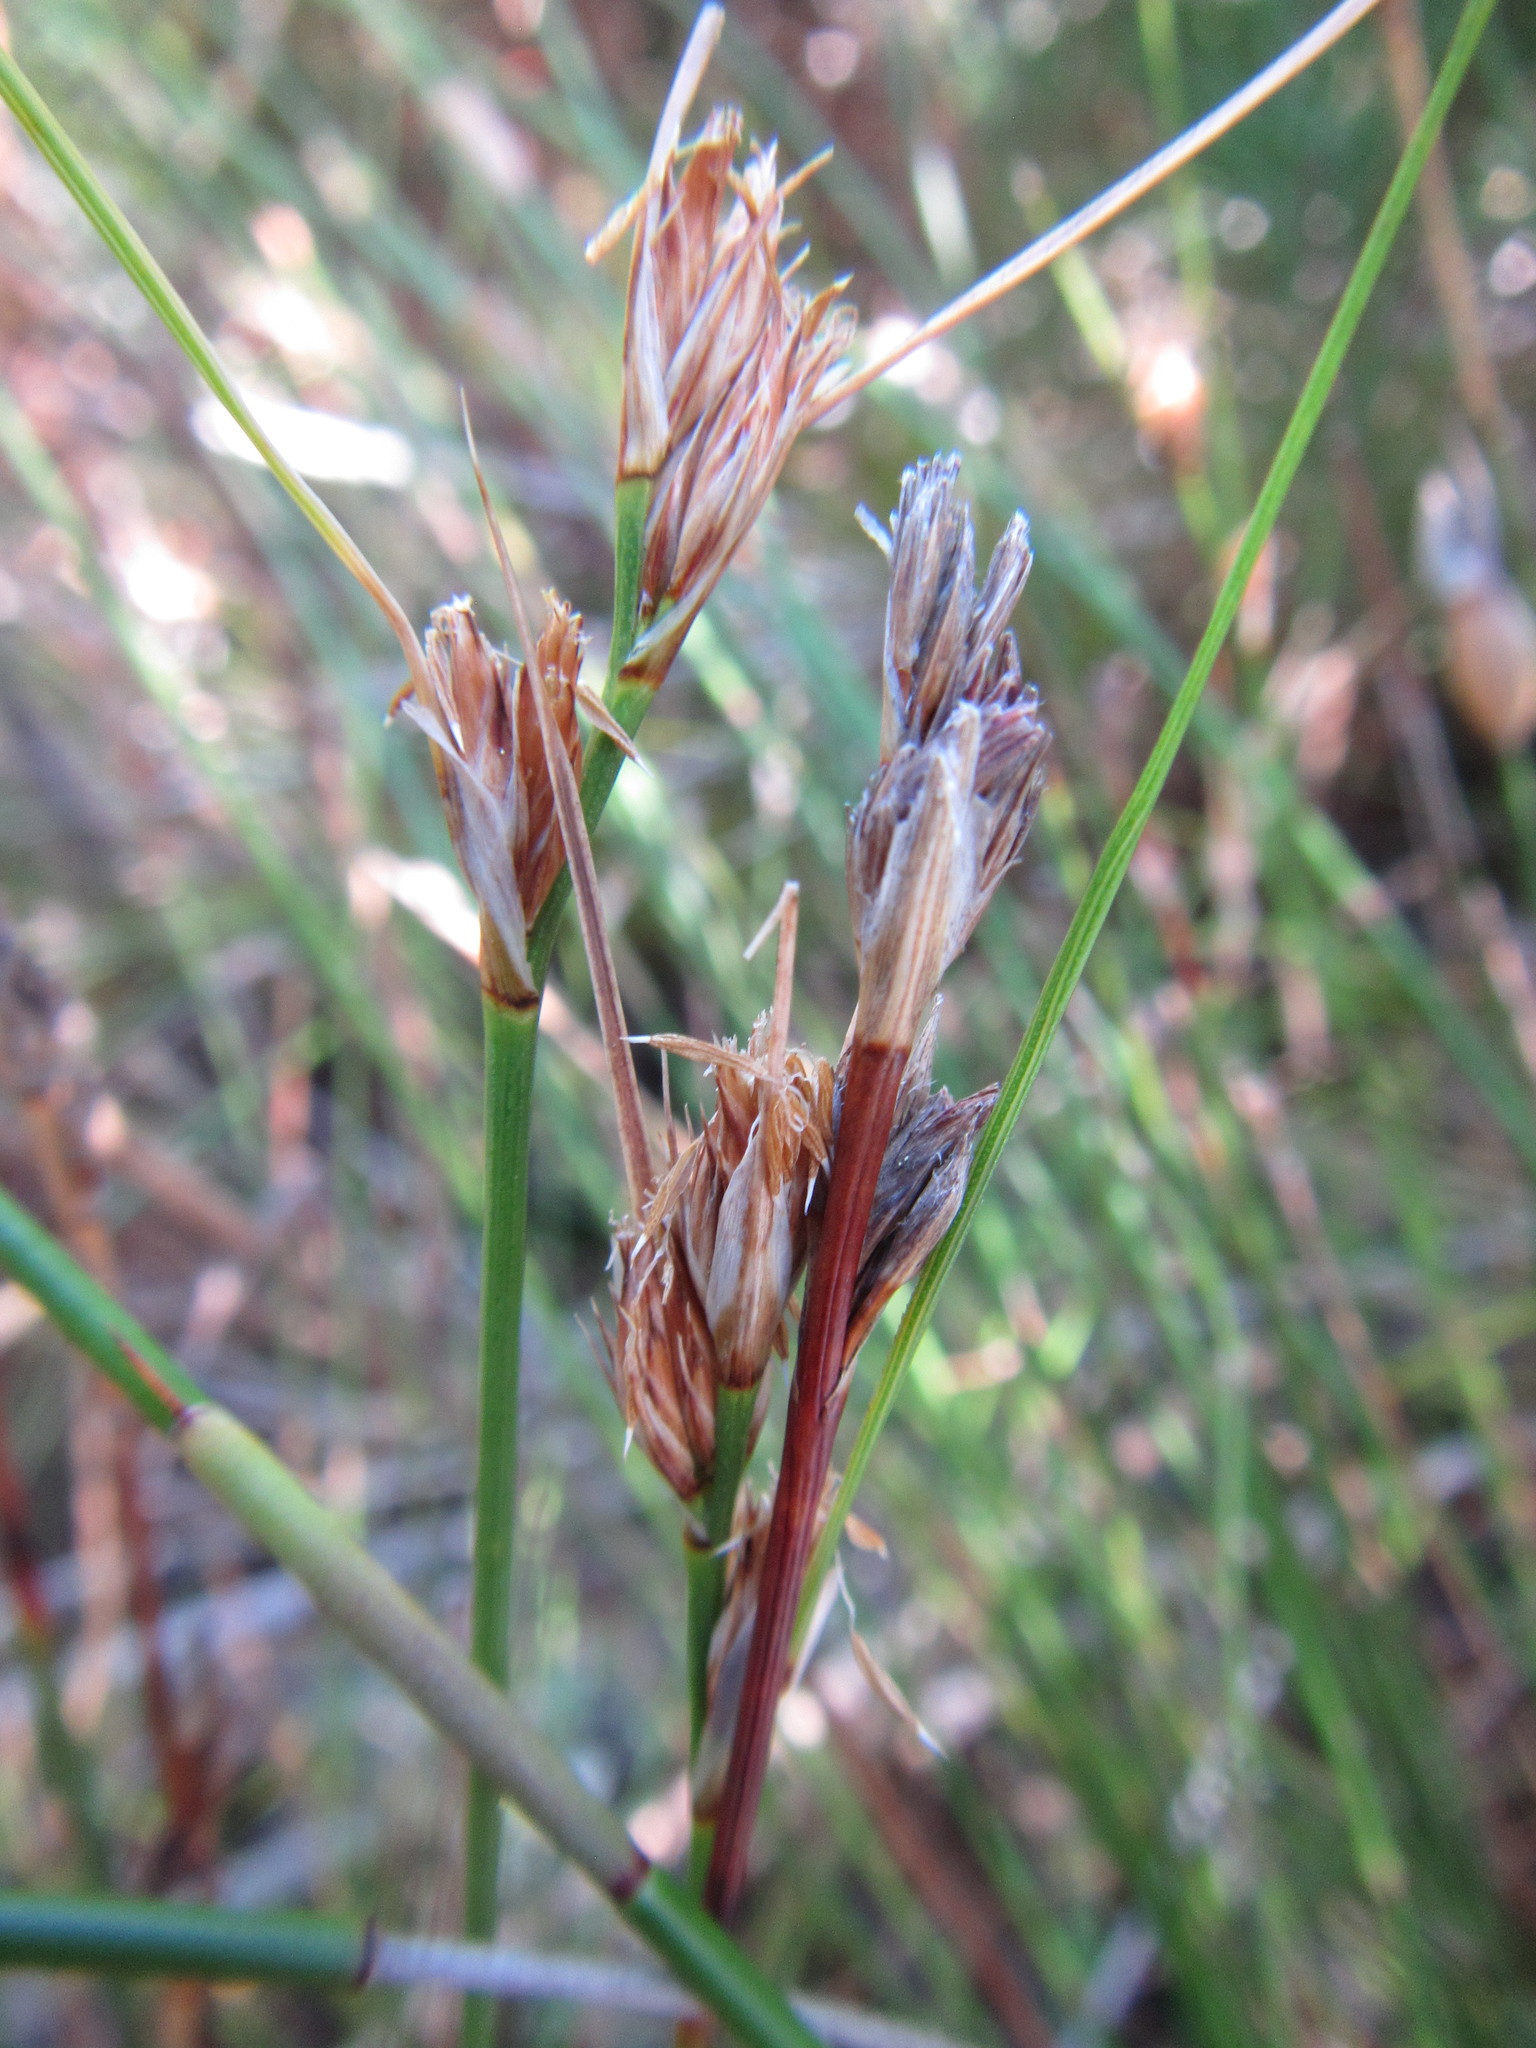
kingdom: Plantae
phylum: Tracheophyta
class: Liliopsida
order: Poales
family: Cyperaceae
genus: Schoenus
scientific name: Schoenus aureus
